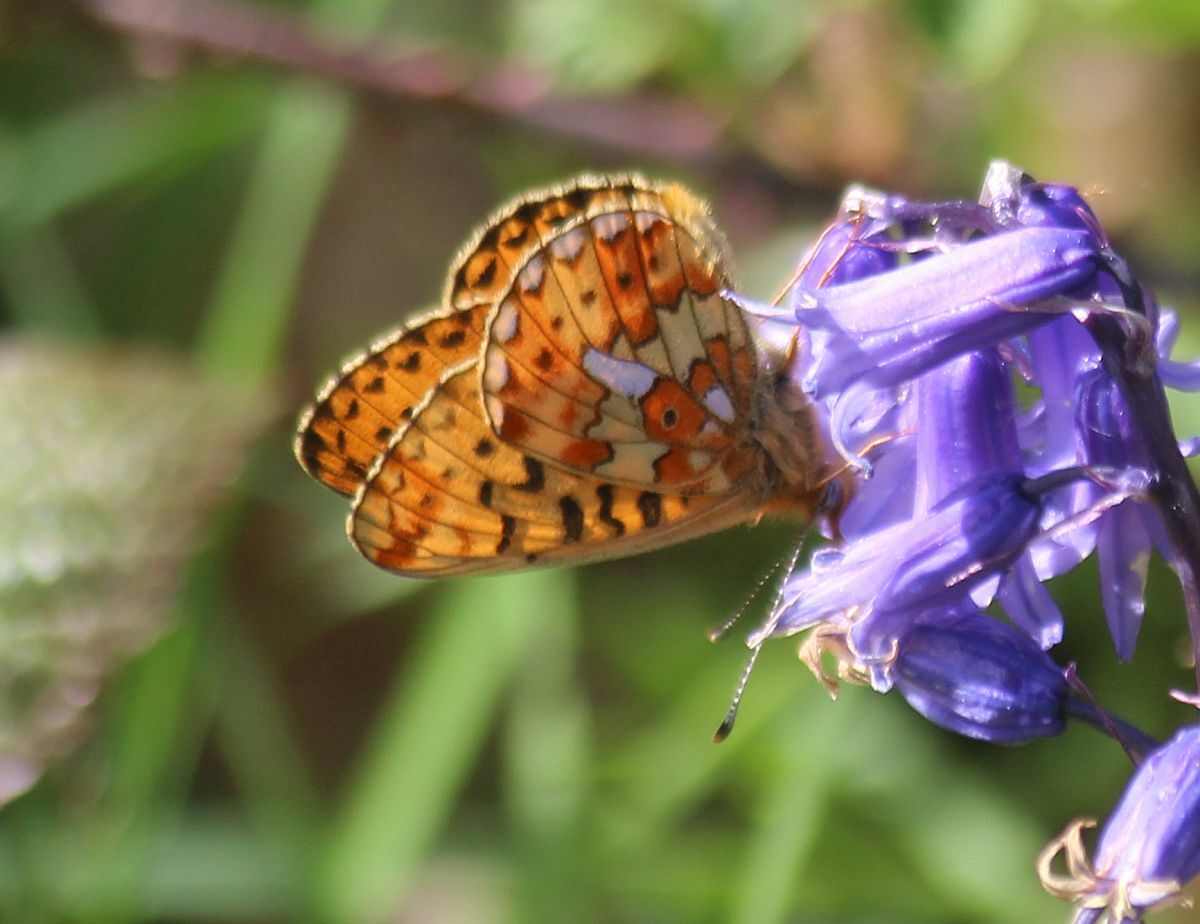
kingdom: Animalia
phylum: Arthropoda
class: Insecta
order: Lepidoptera
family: Nymphalidae
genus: Clossiana
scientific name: Clossiana euphrosyne
